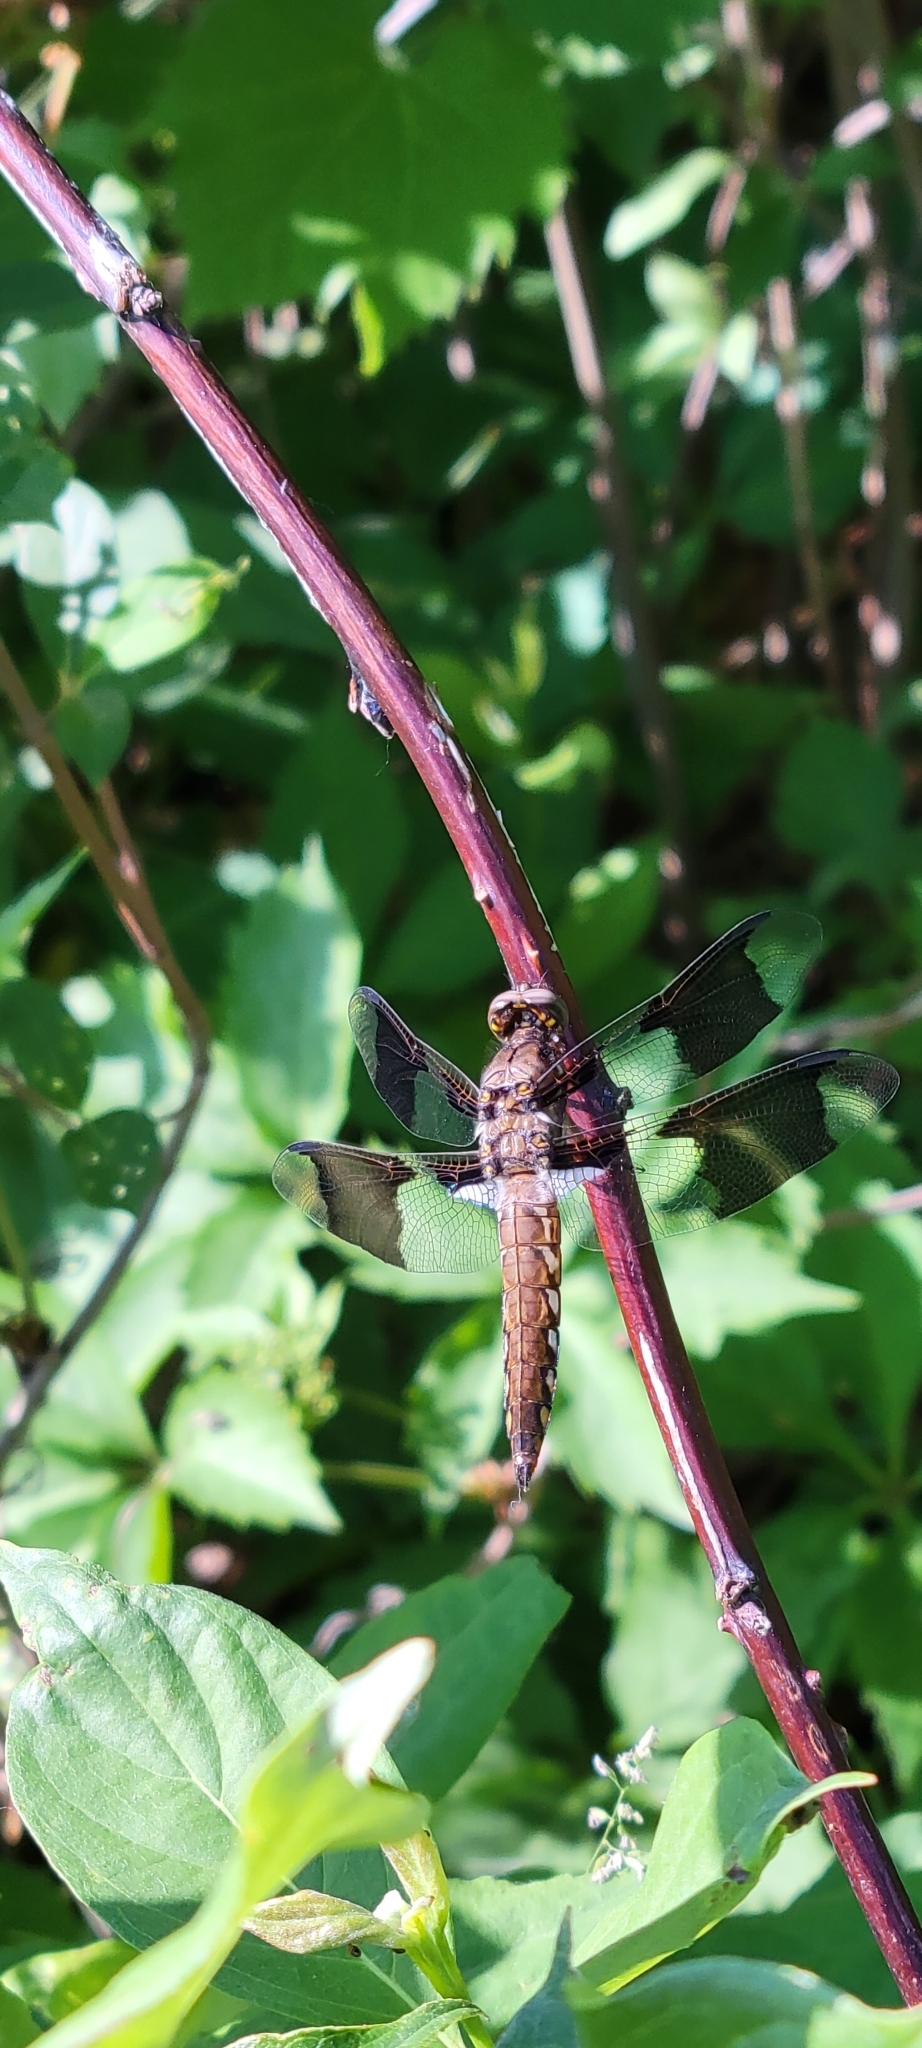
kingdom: Animalia
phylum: Arthropoda
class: Insecta
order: Odonata
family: Libellulidae
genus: Plathemis
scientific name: Plathemis lydia
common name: Common whitetail
